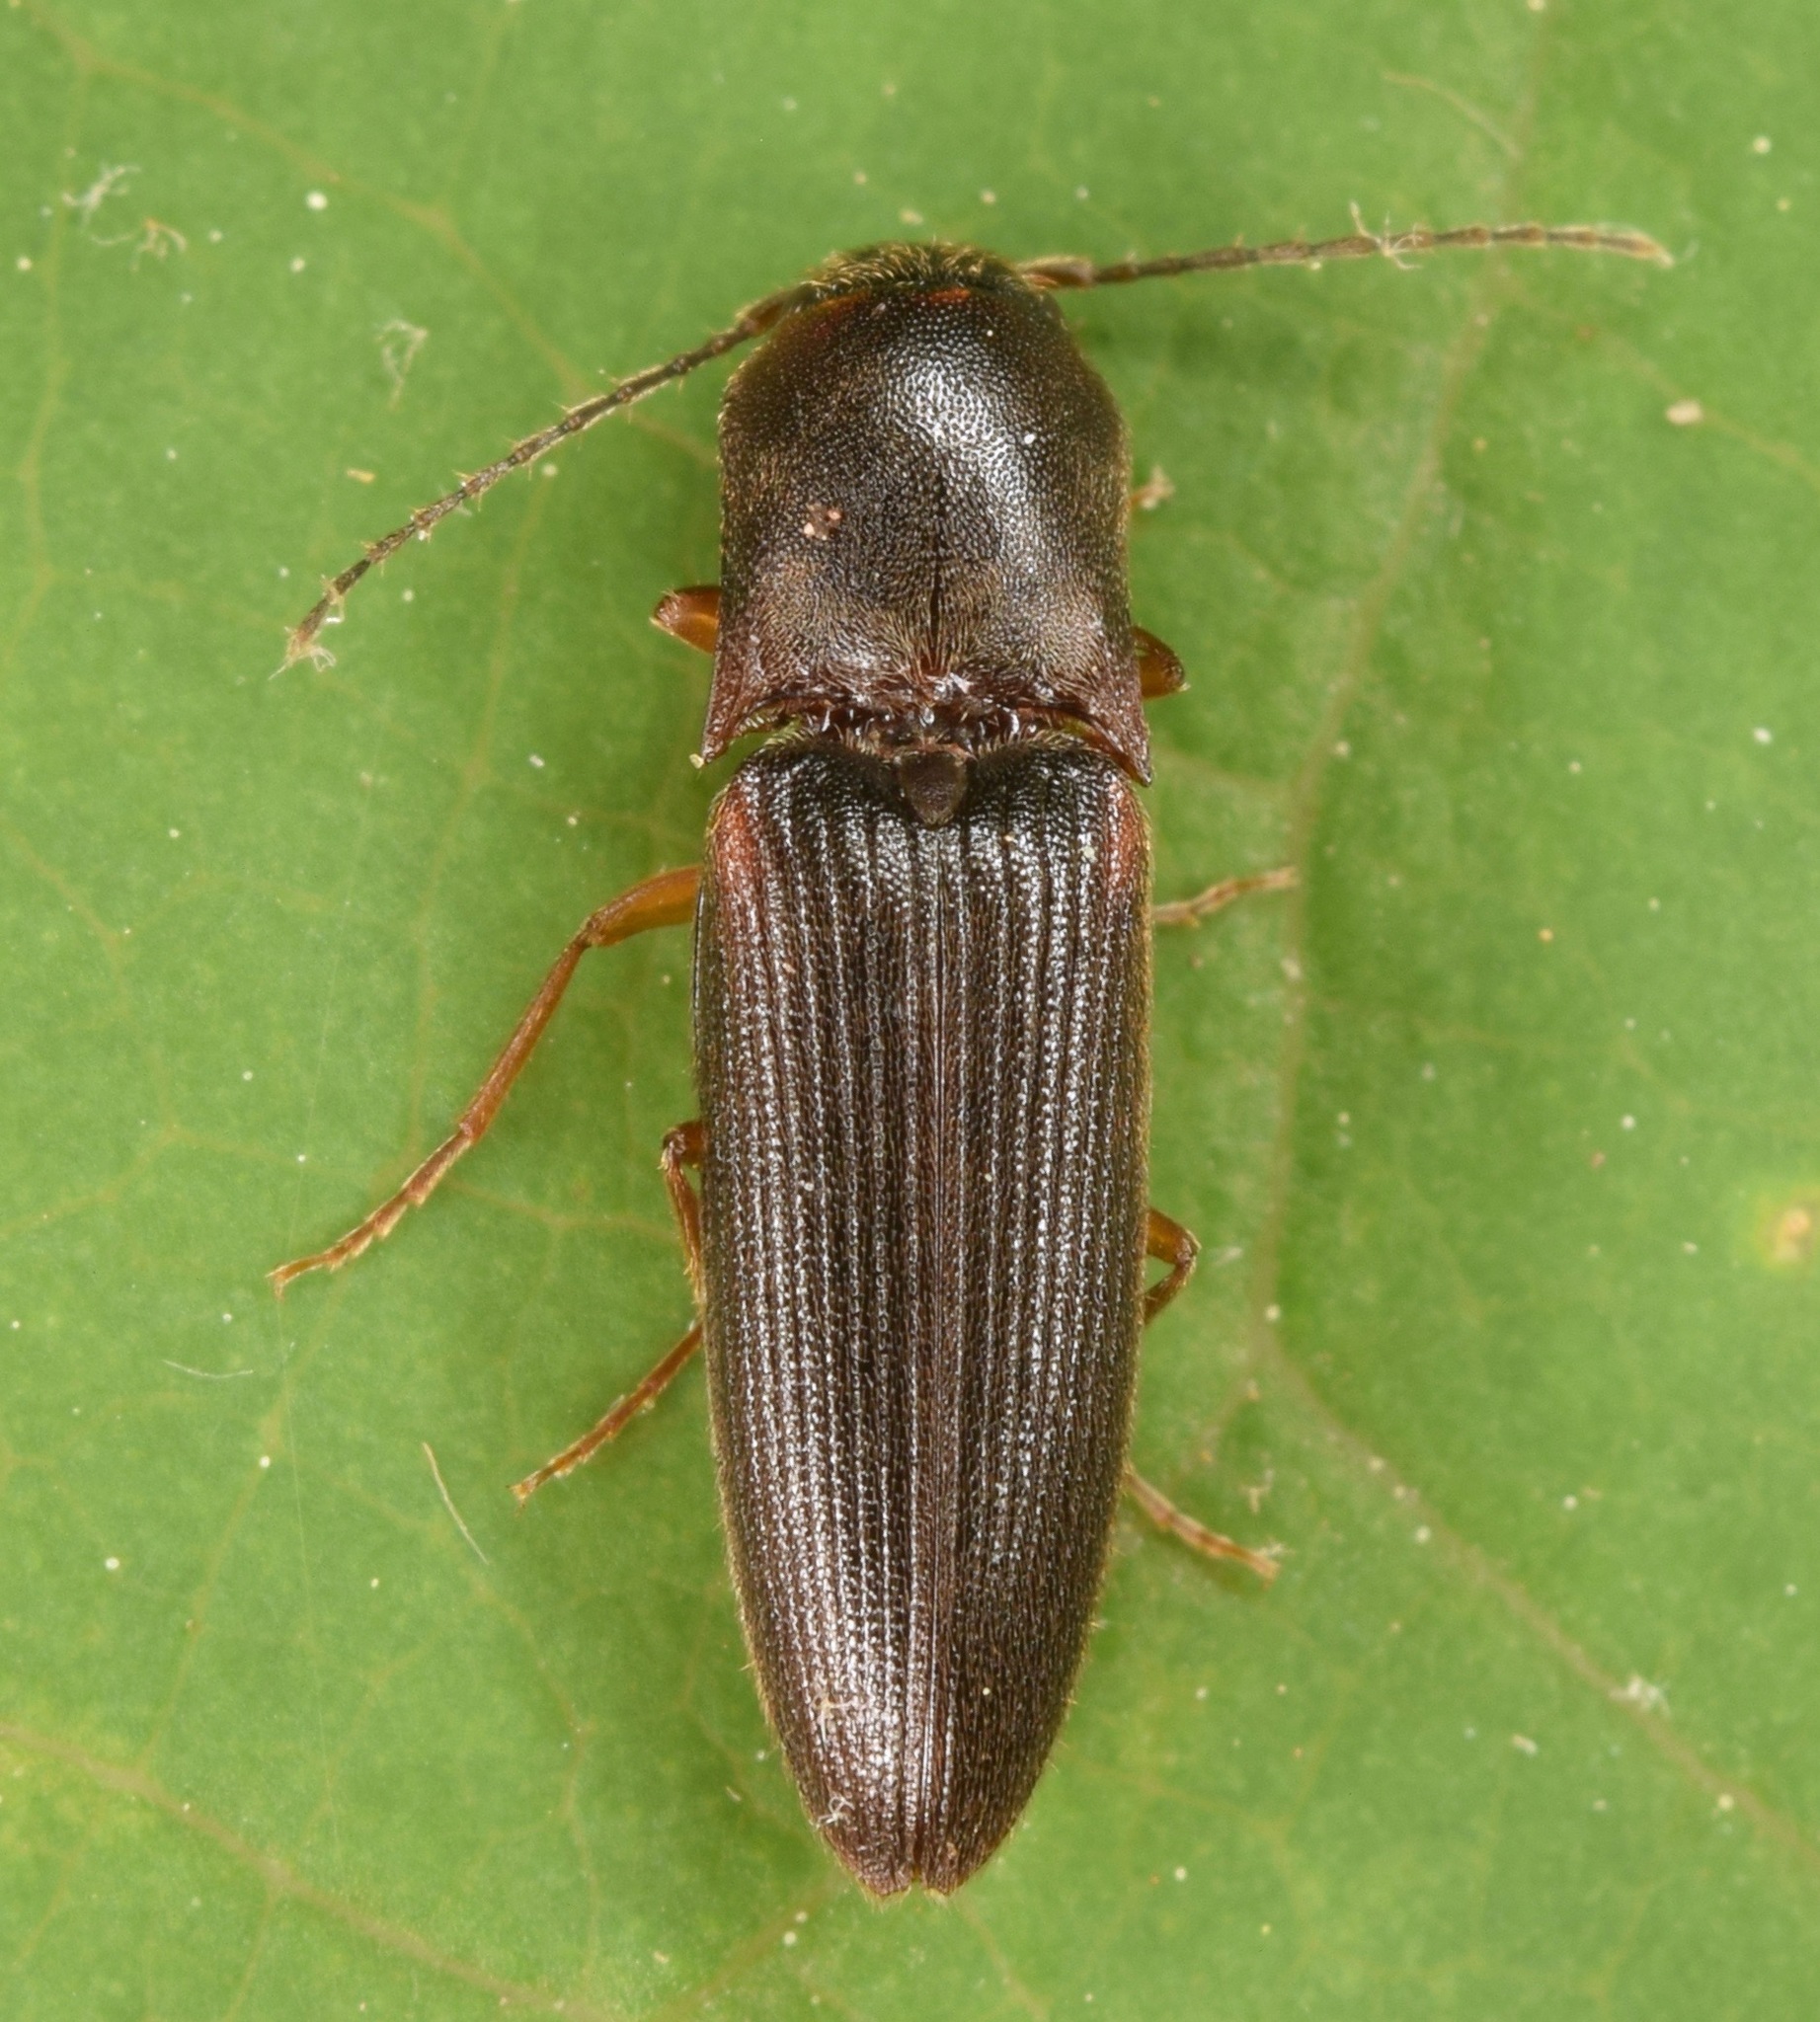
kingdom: Animalia
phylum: Arthropoda
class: Insecta
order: Coleoptera
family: Elateridae
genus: Dalopius
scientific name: Dalopius
